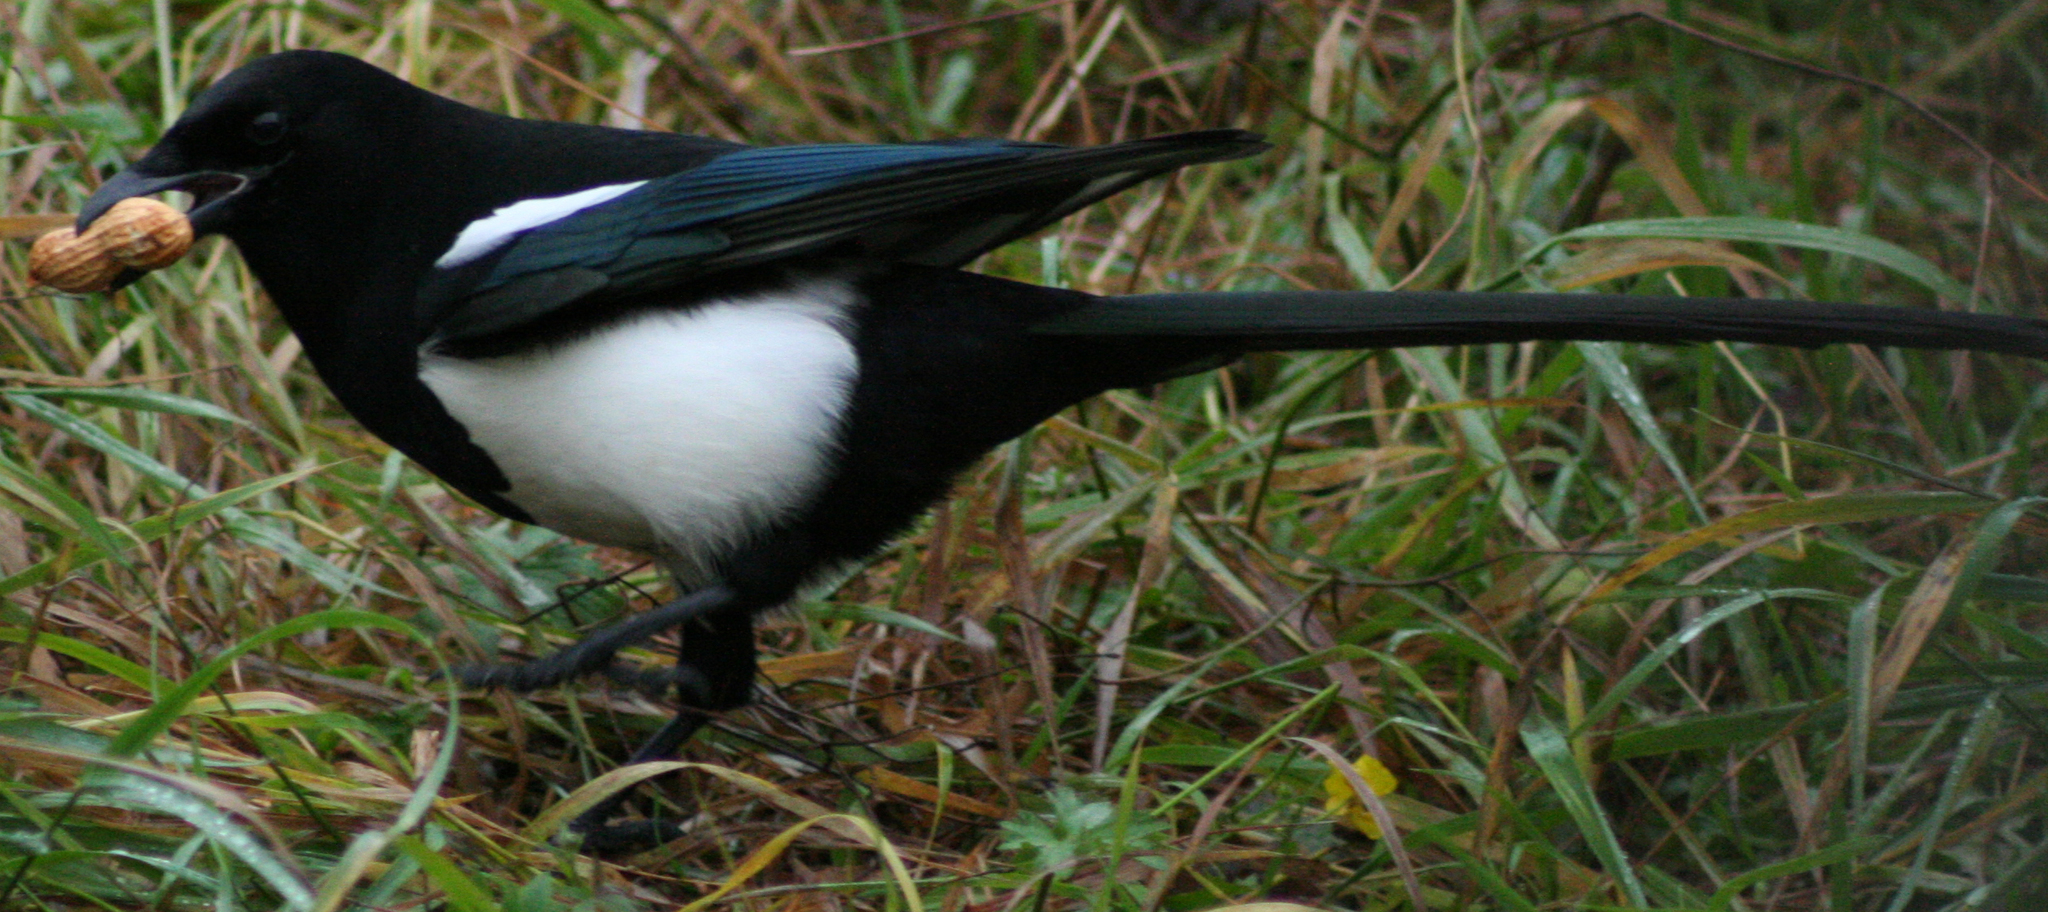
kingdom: Animalia
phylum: Chordata
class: Aves
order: Passeriformes
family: Corvidae
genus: Pica
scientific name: Pica hudsonia
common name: Black-billed magpie
